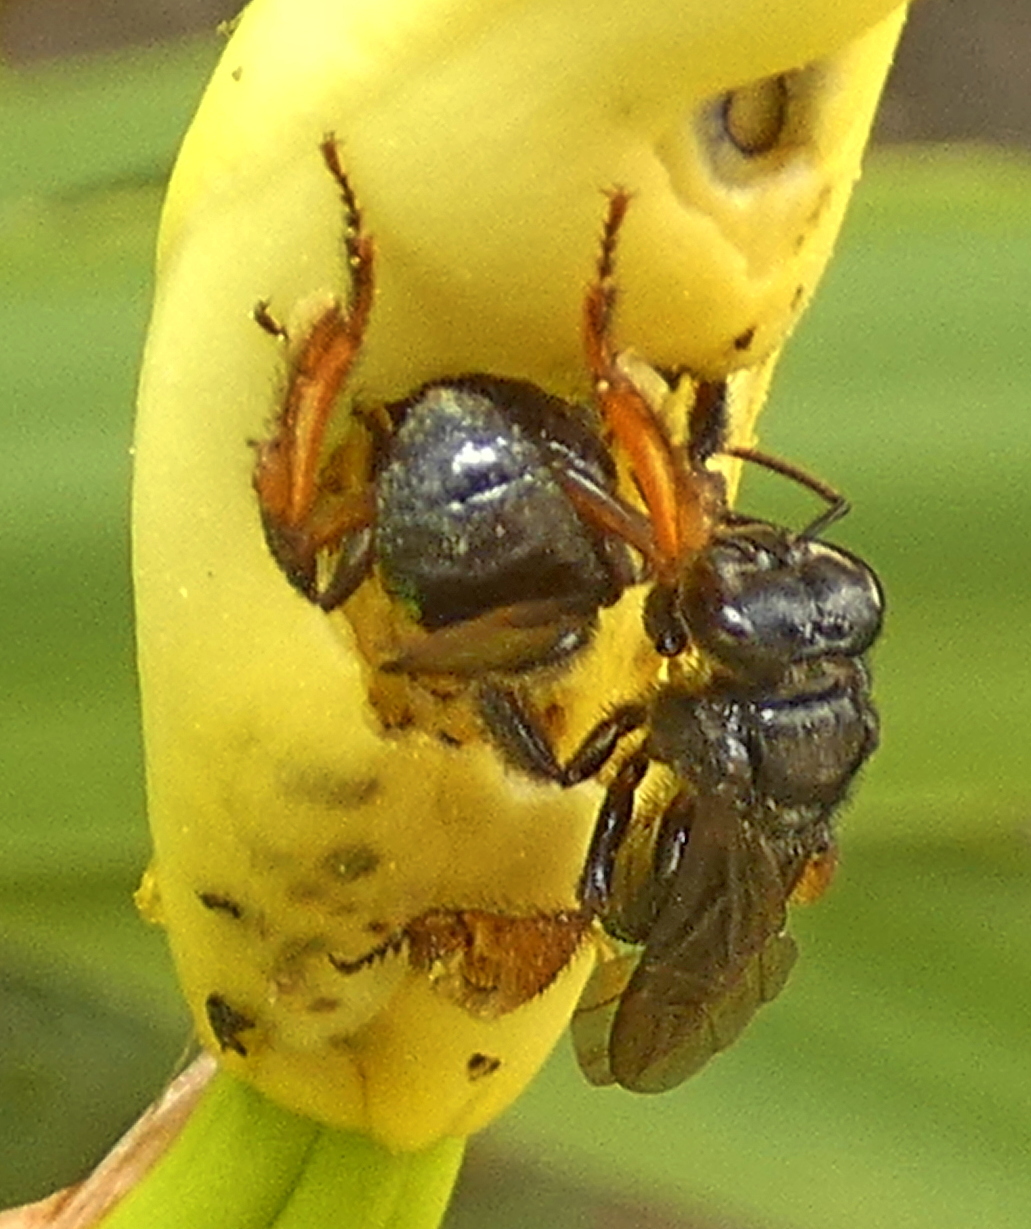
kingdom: Animalia
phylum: Arthropoda
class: Insecta
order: Hymenoptera
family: Apidae
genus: Trigona
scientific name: Trigona spinipes
